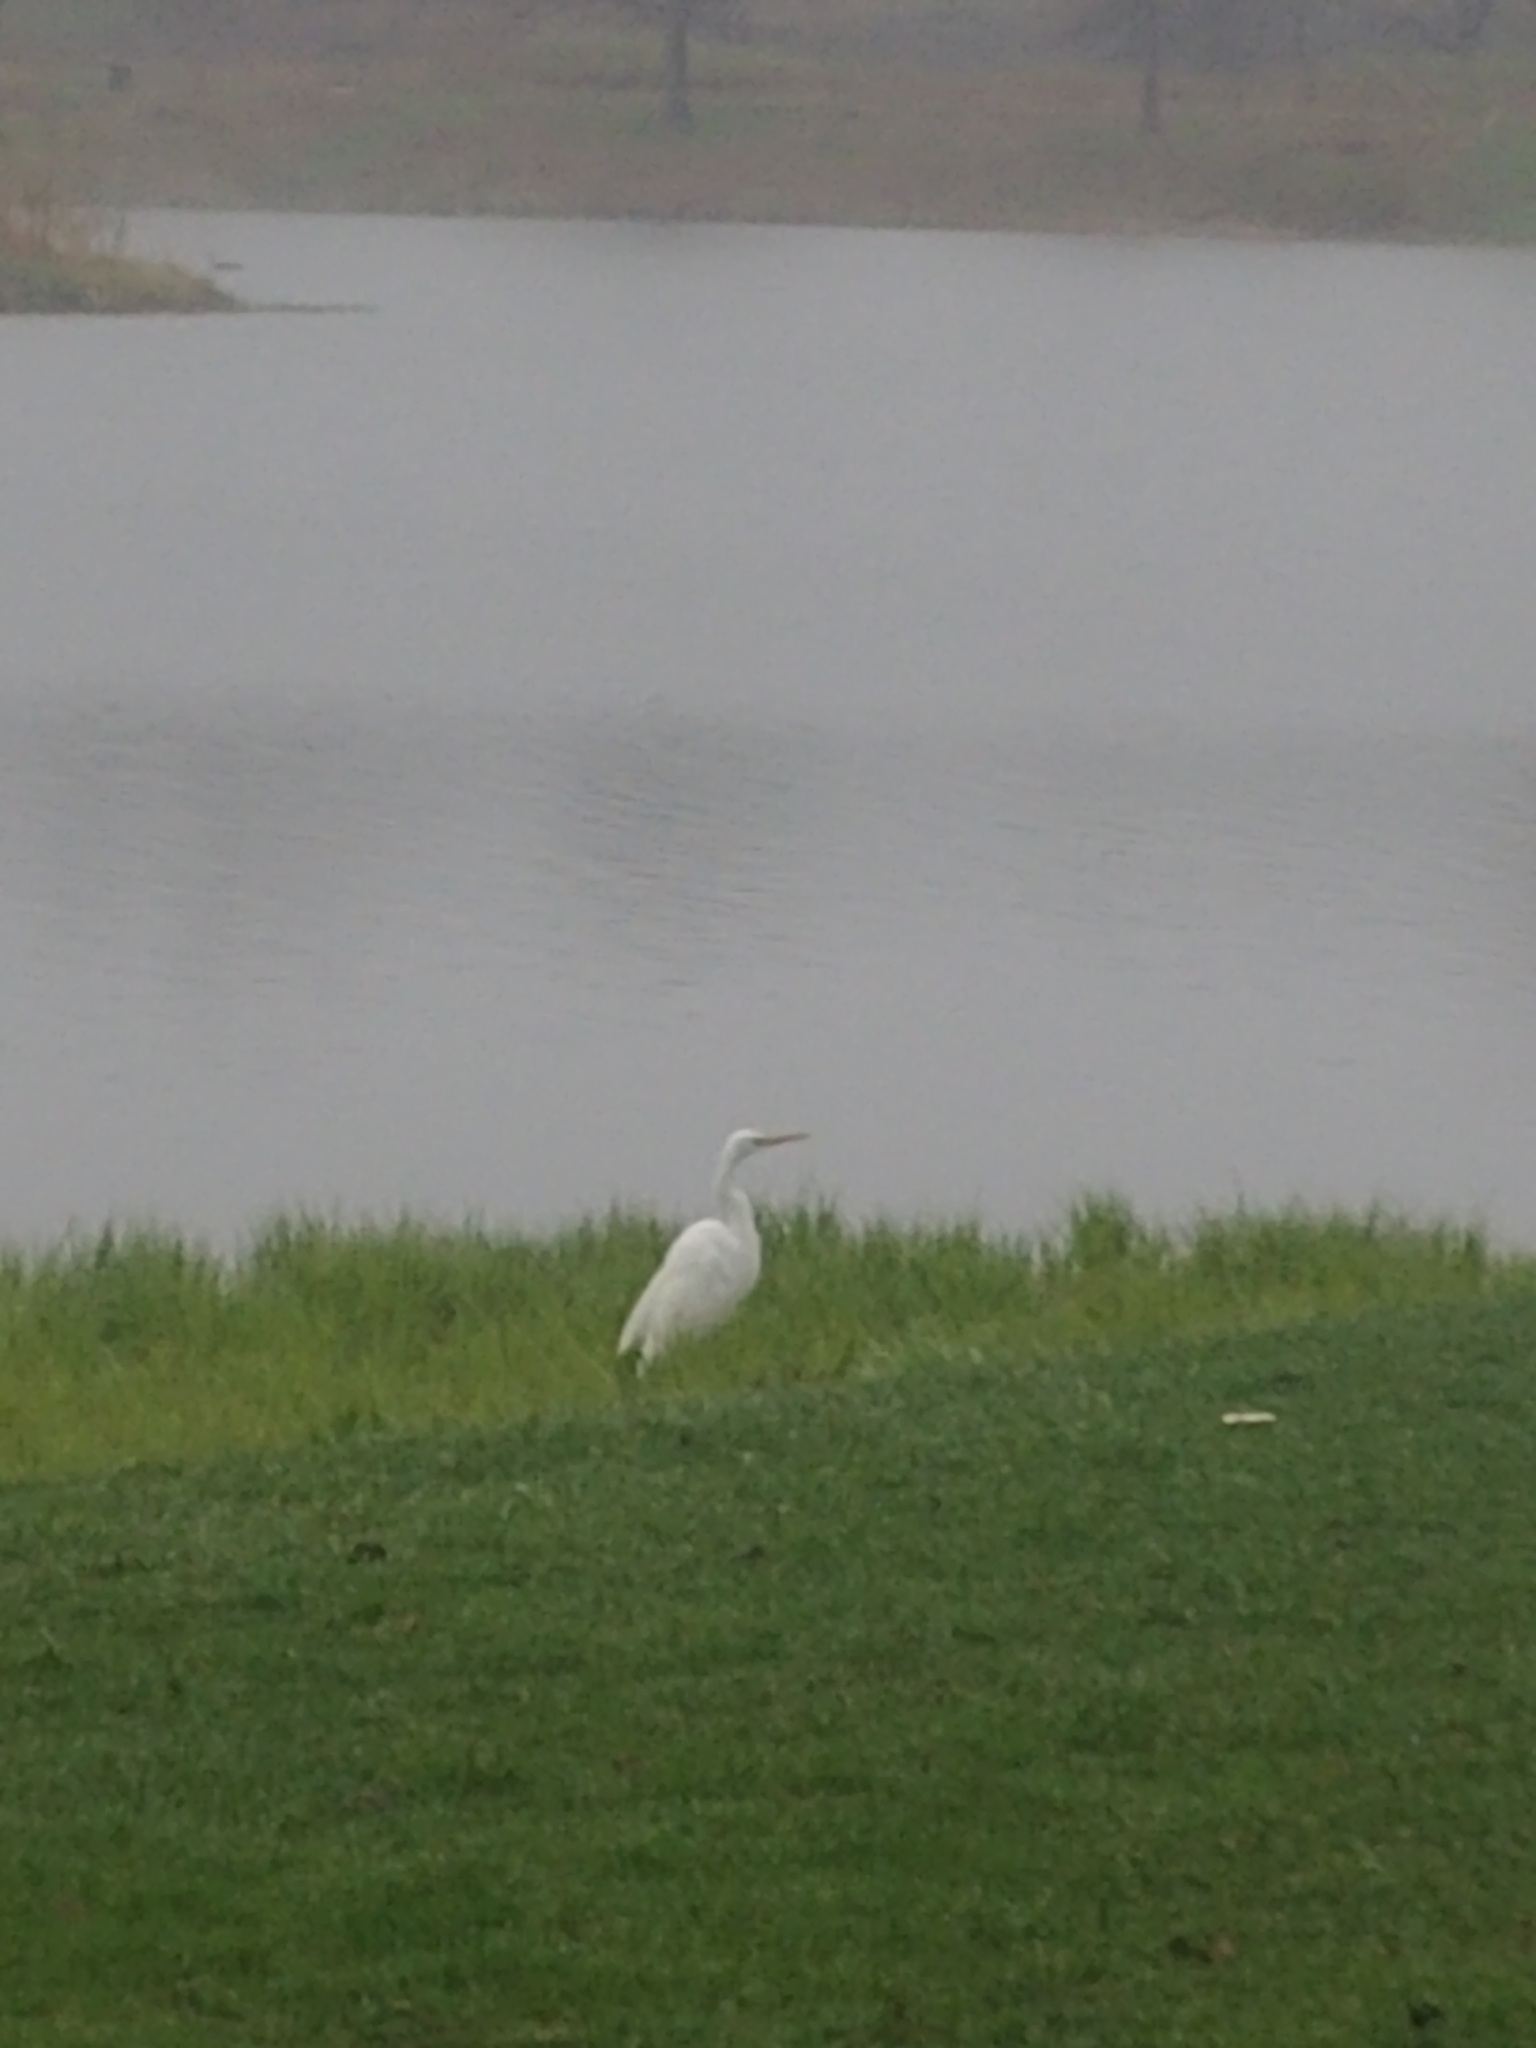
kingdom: Animalia
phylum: Chordata
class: Aves
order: Pelecaniformes
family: Ardeidae
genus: Ardea
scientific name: Ardea alba
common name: Great egret
